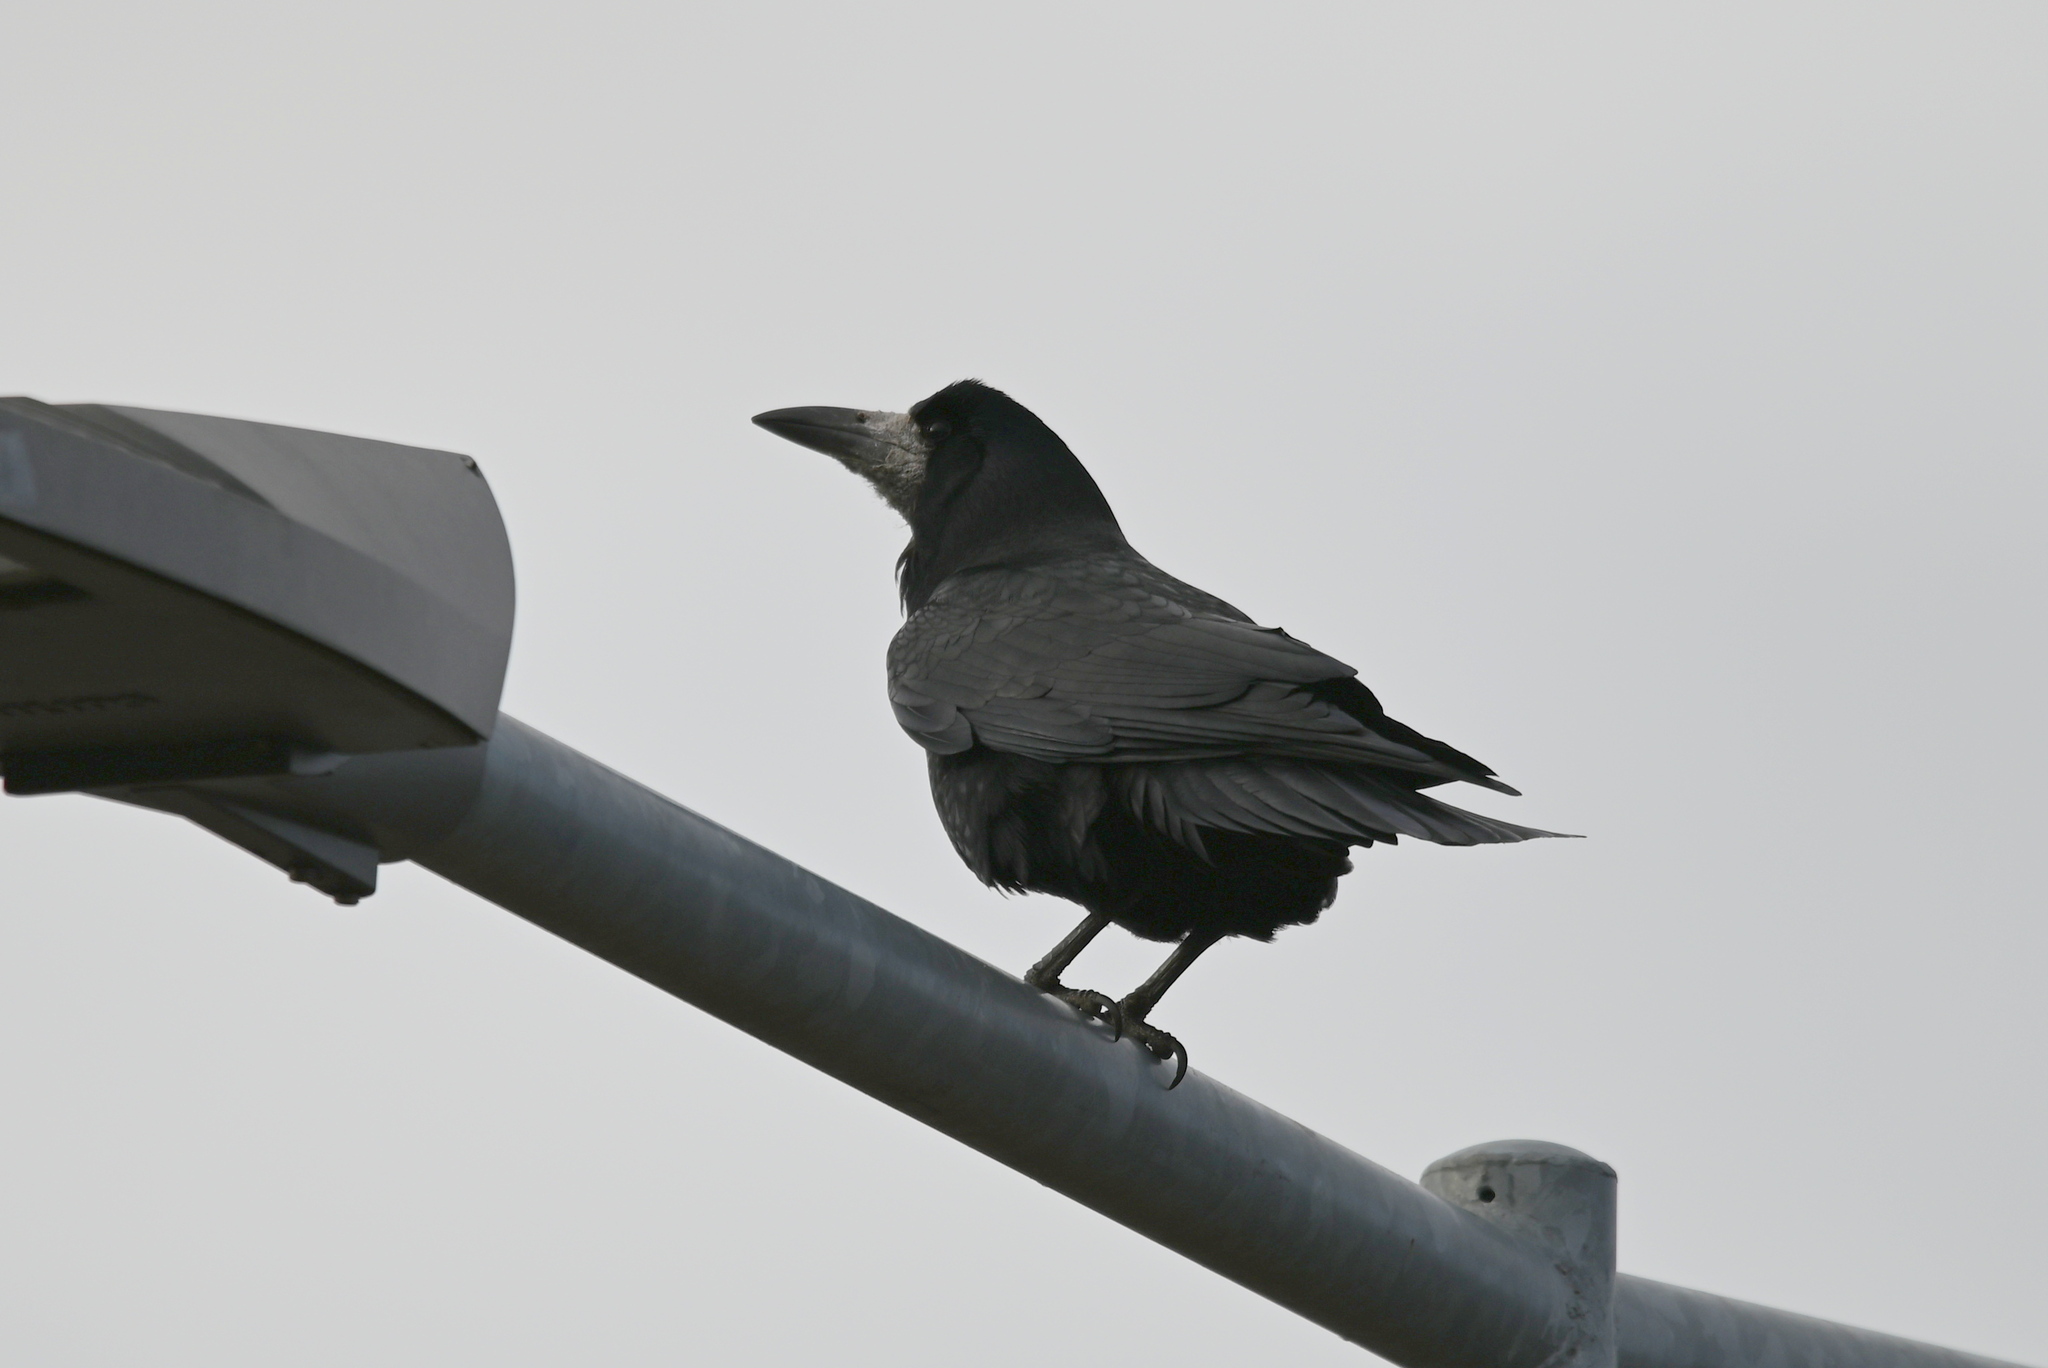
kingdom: Animalia
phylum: Chordata
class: Aves
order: Passeriformes
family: Corvidae
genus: Corvus
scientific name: Corvus frugilegus
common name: Rook
